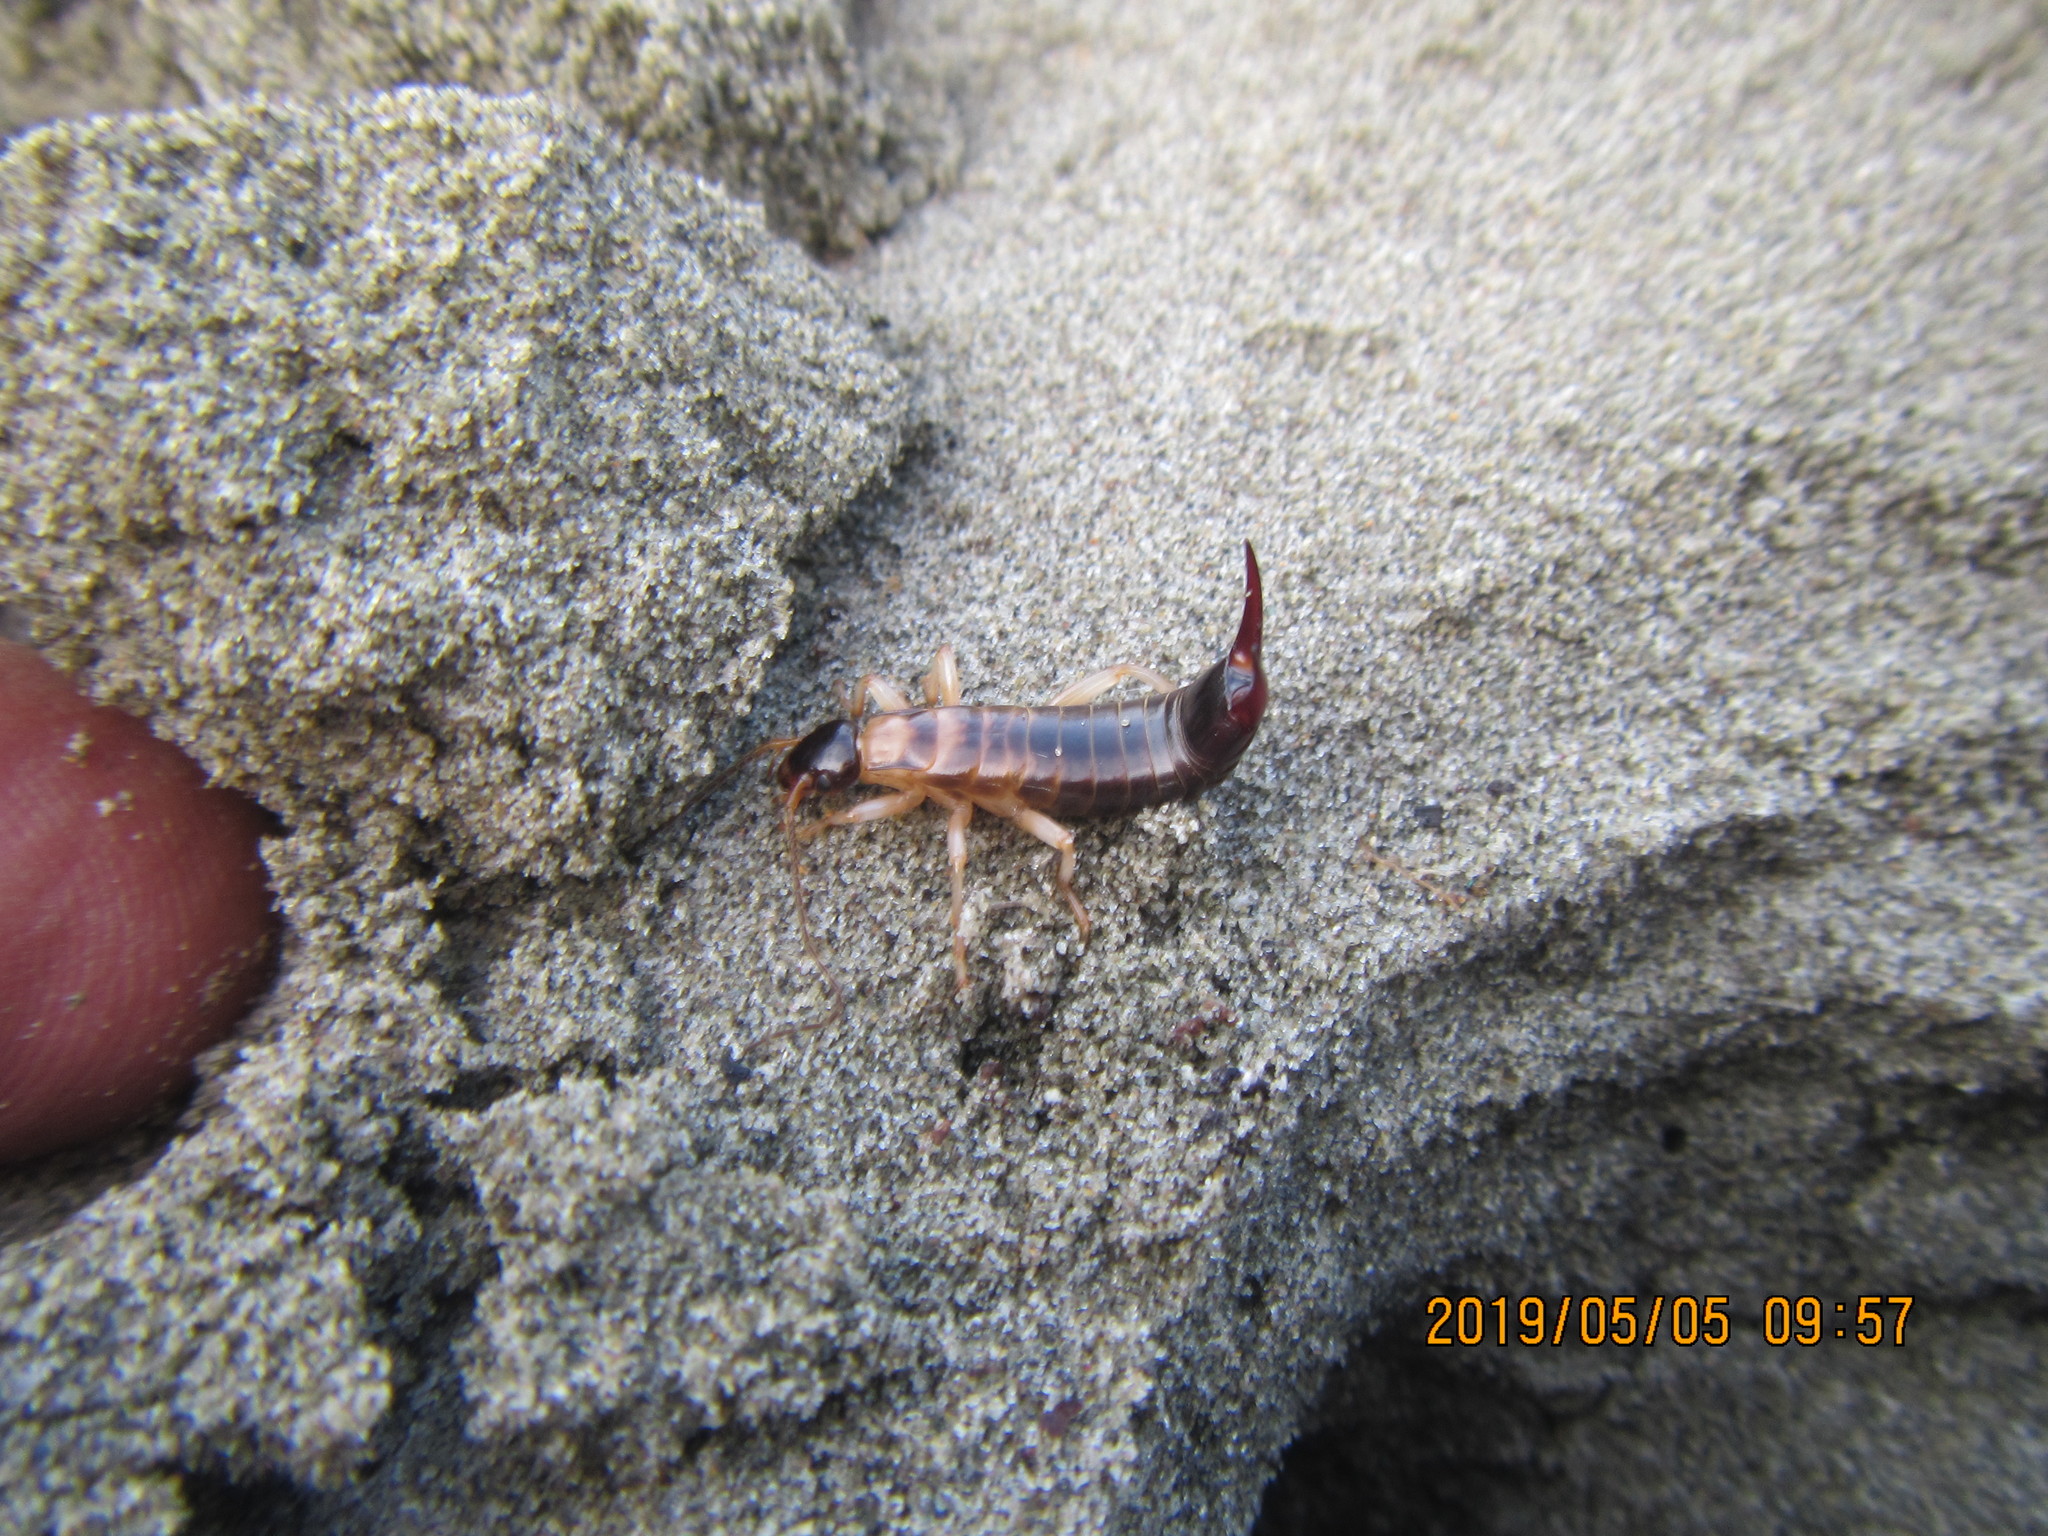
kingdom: Animalia
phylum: Arthropoda
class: Insecta
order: Dermaptera
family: Anisolabididae
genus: Anisolabis
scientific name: Anisolabis littorea
